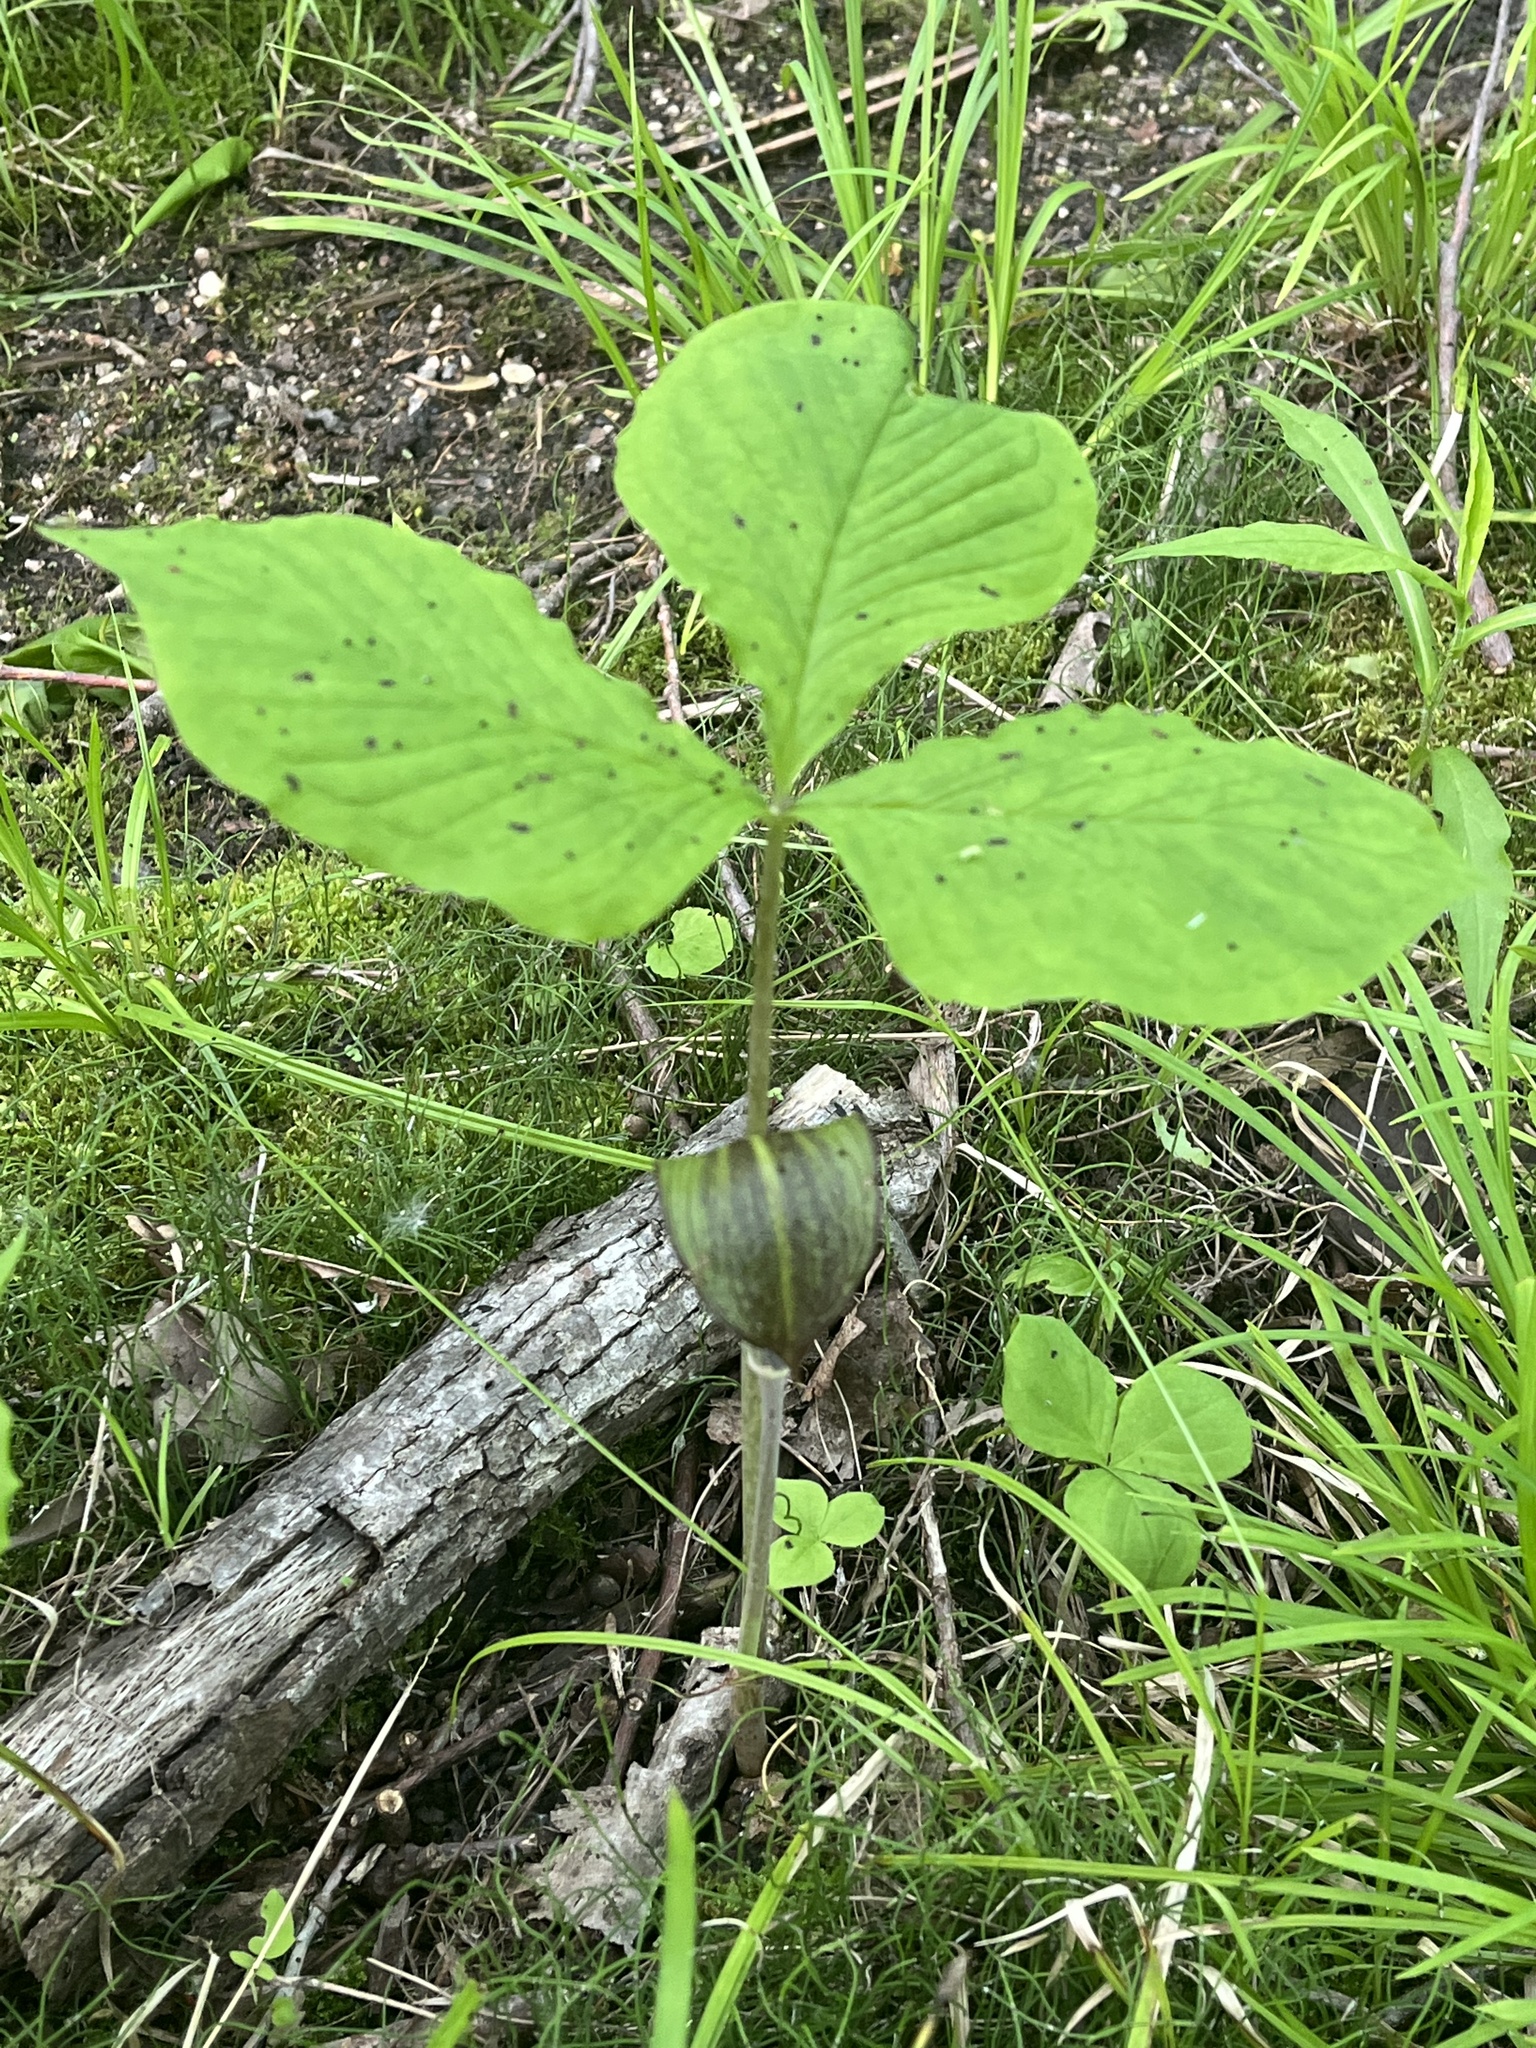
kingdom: Plantae
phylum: Tracheophyta
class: Liliopsida
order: Alismatales
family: Araceae
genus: Arisaema
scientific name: Arisaema triphyllum
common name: Jack-in-the-pulpit
